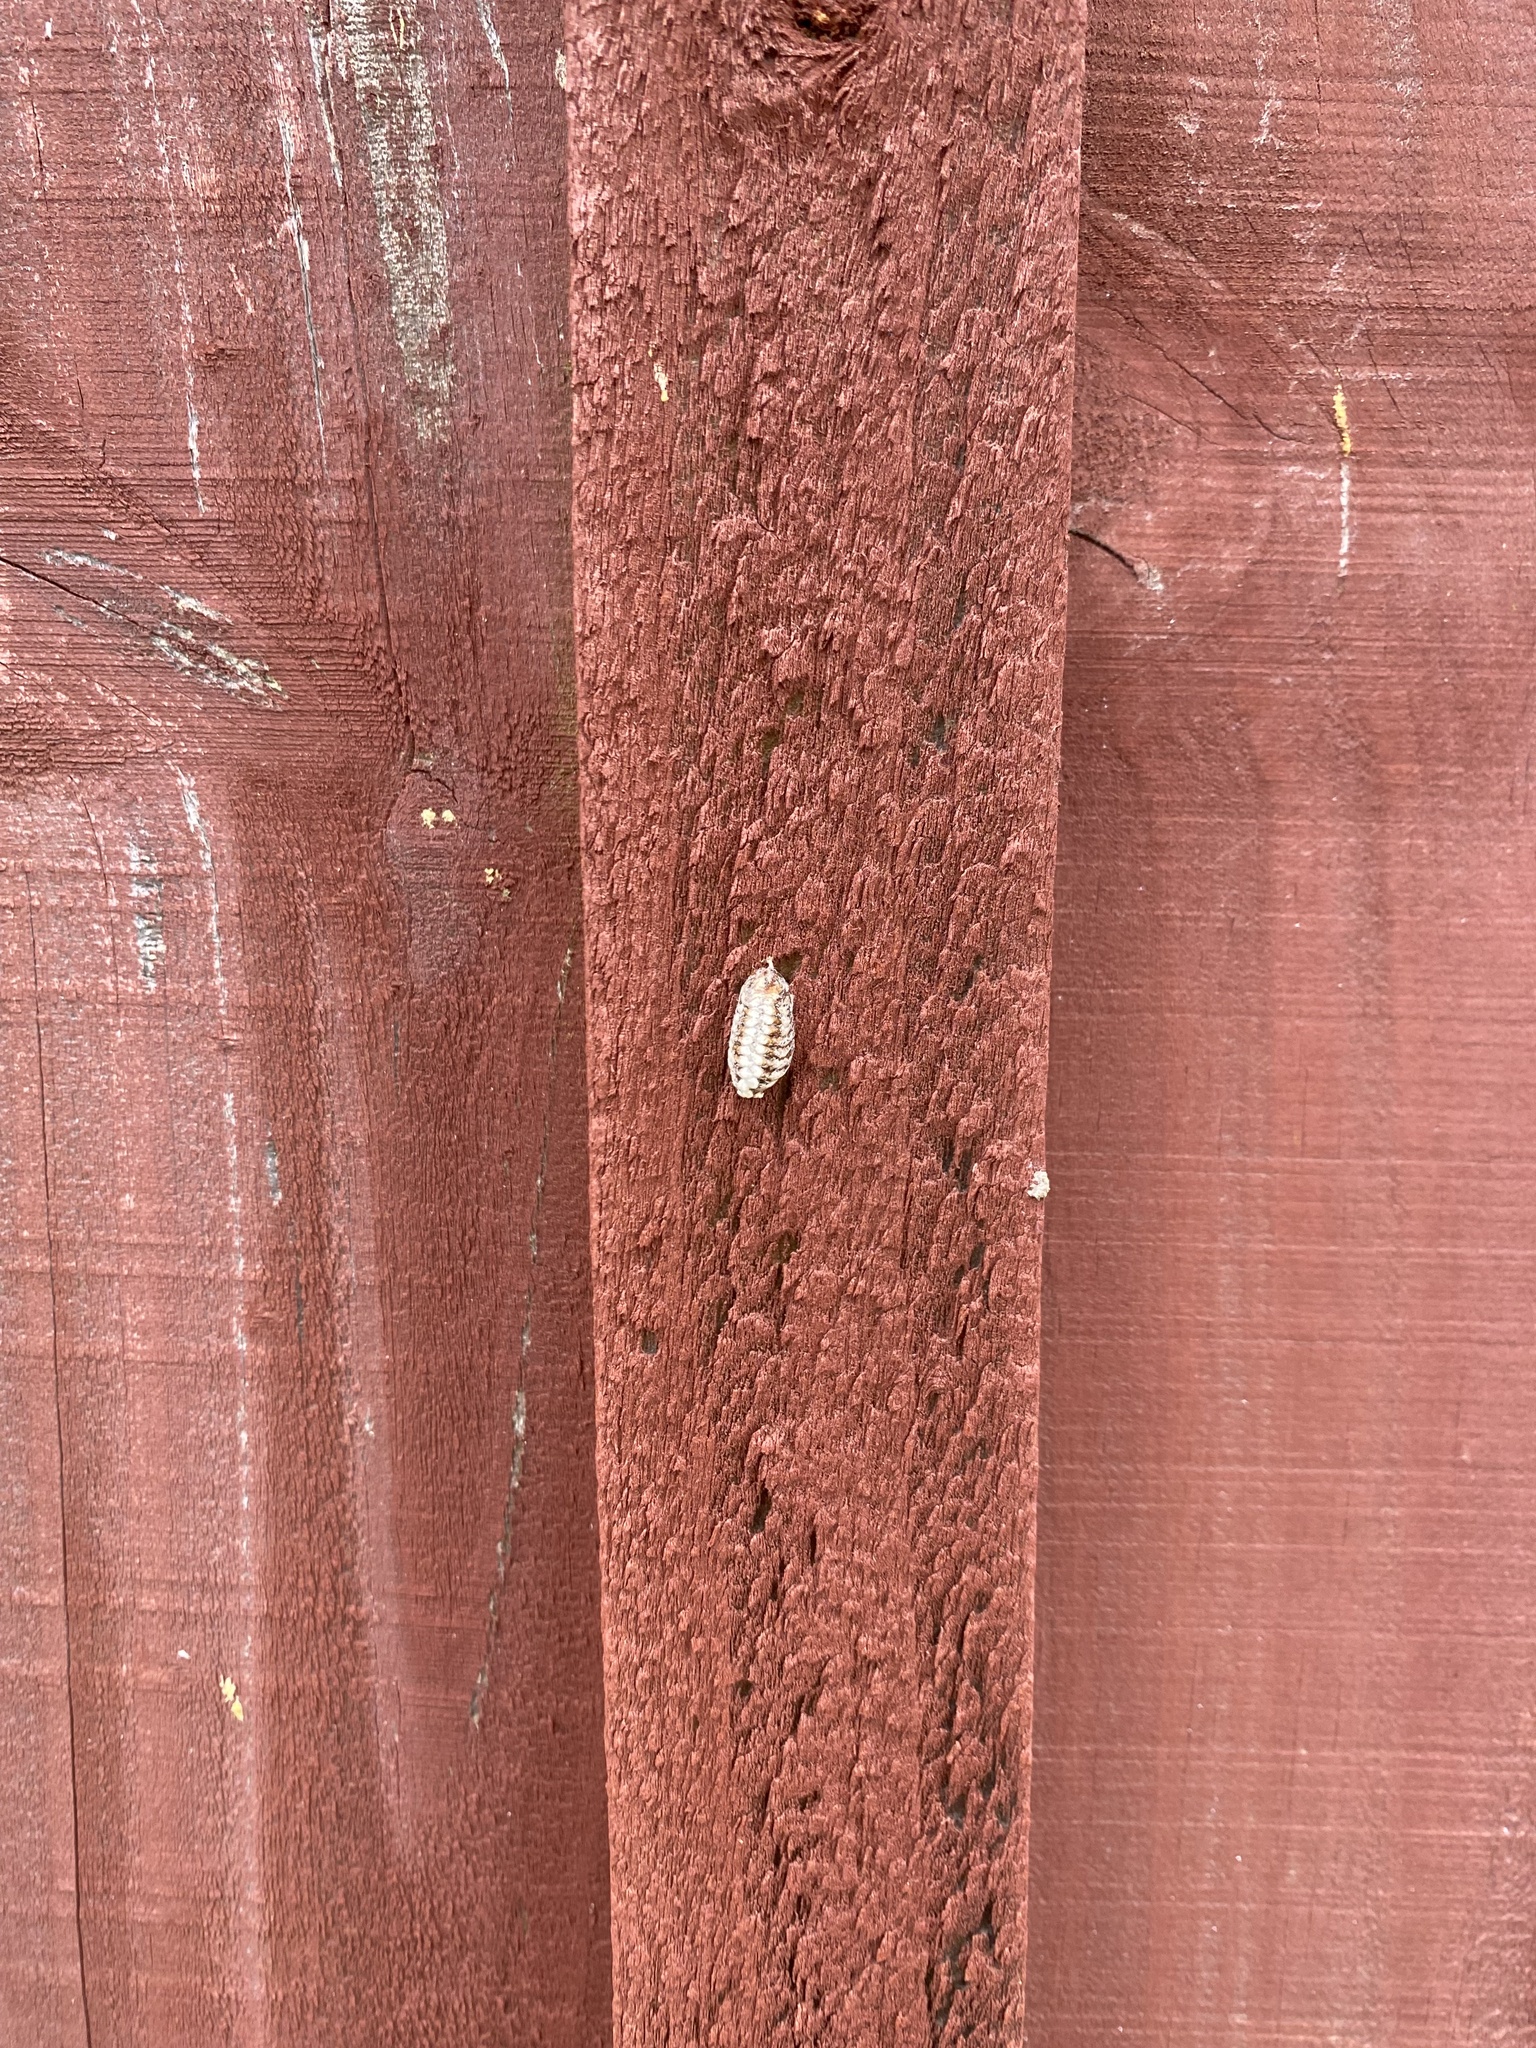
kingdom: Animalia
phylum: Arthropoda
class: Insecta
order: Mantodea
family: Mantidae
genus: Orthodera
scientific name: Orthodera novaezealandiae
